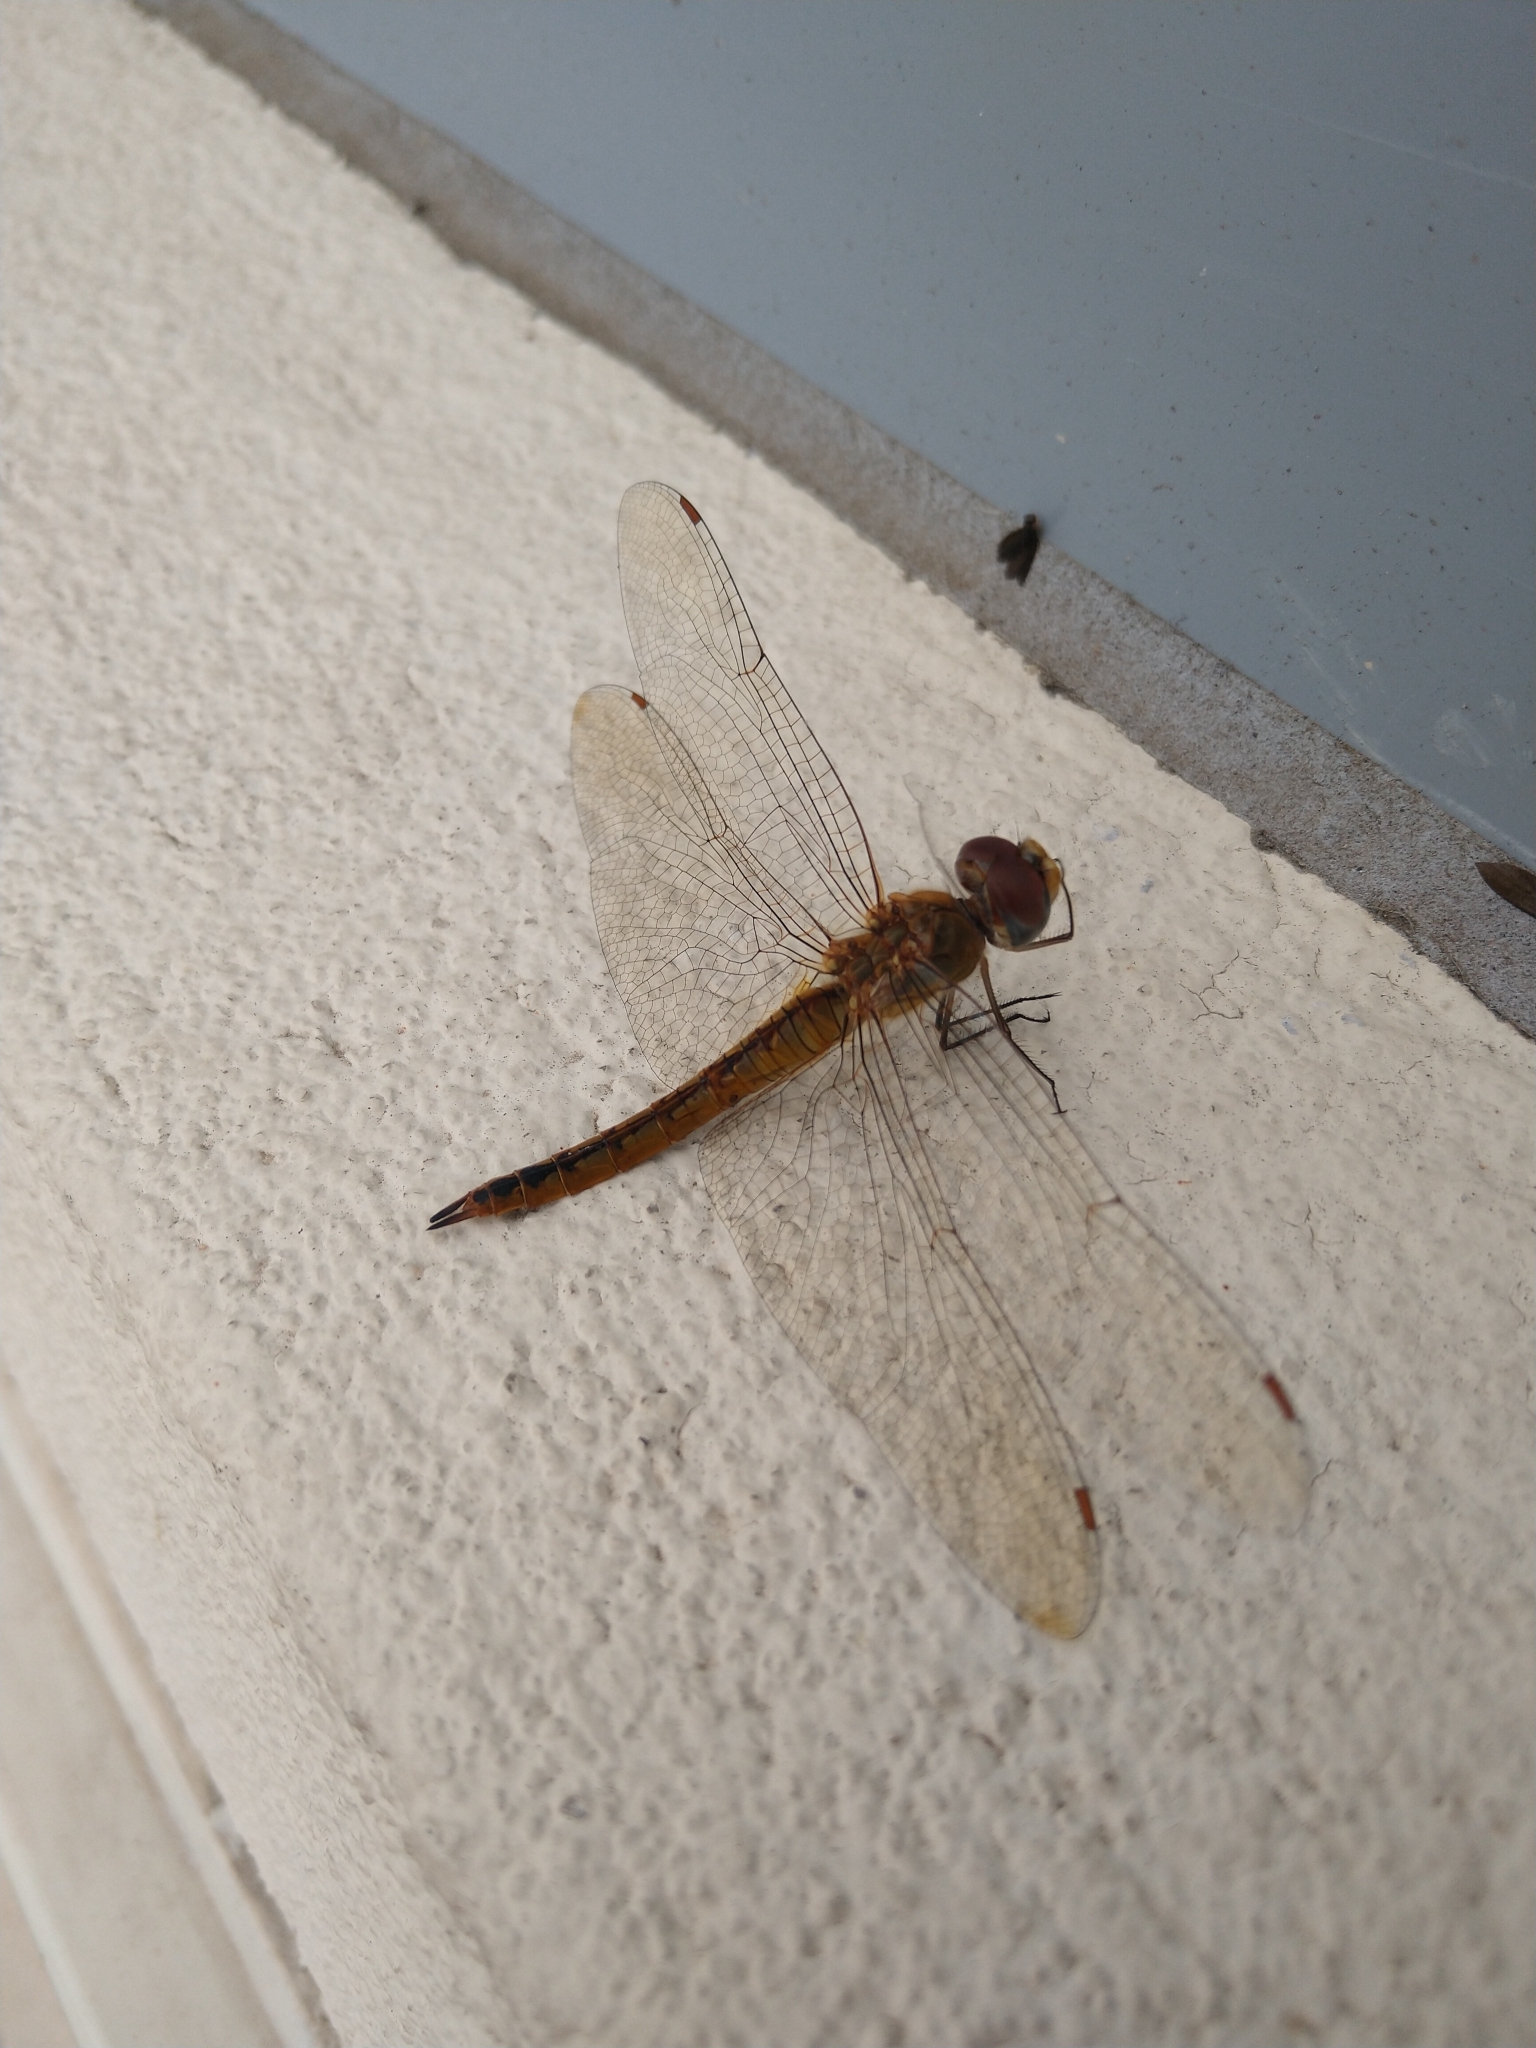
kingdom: Animalia
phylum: Arthropoda
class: Insecta
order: Odonata
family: Libellulidae
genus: Pantala
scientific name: Pantala flavescens
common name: Wandering glider
